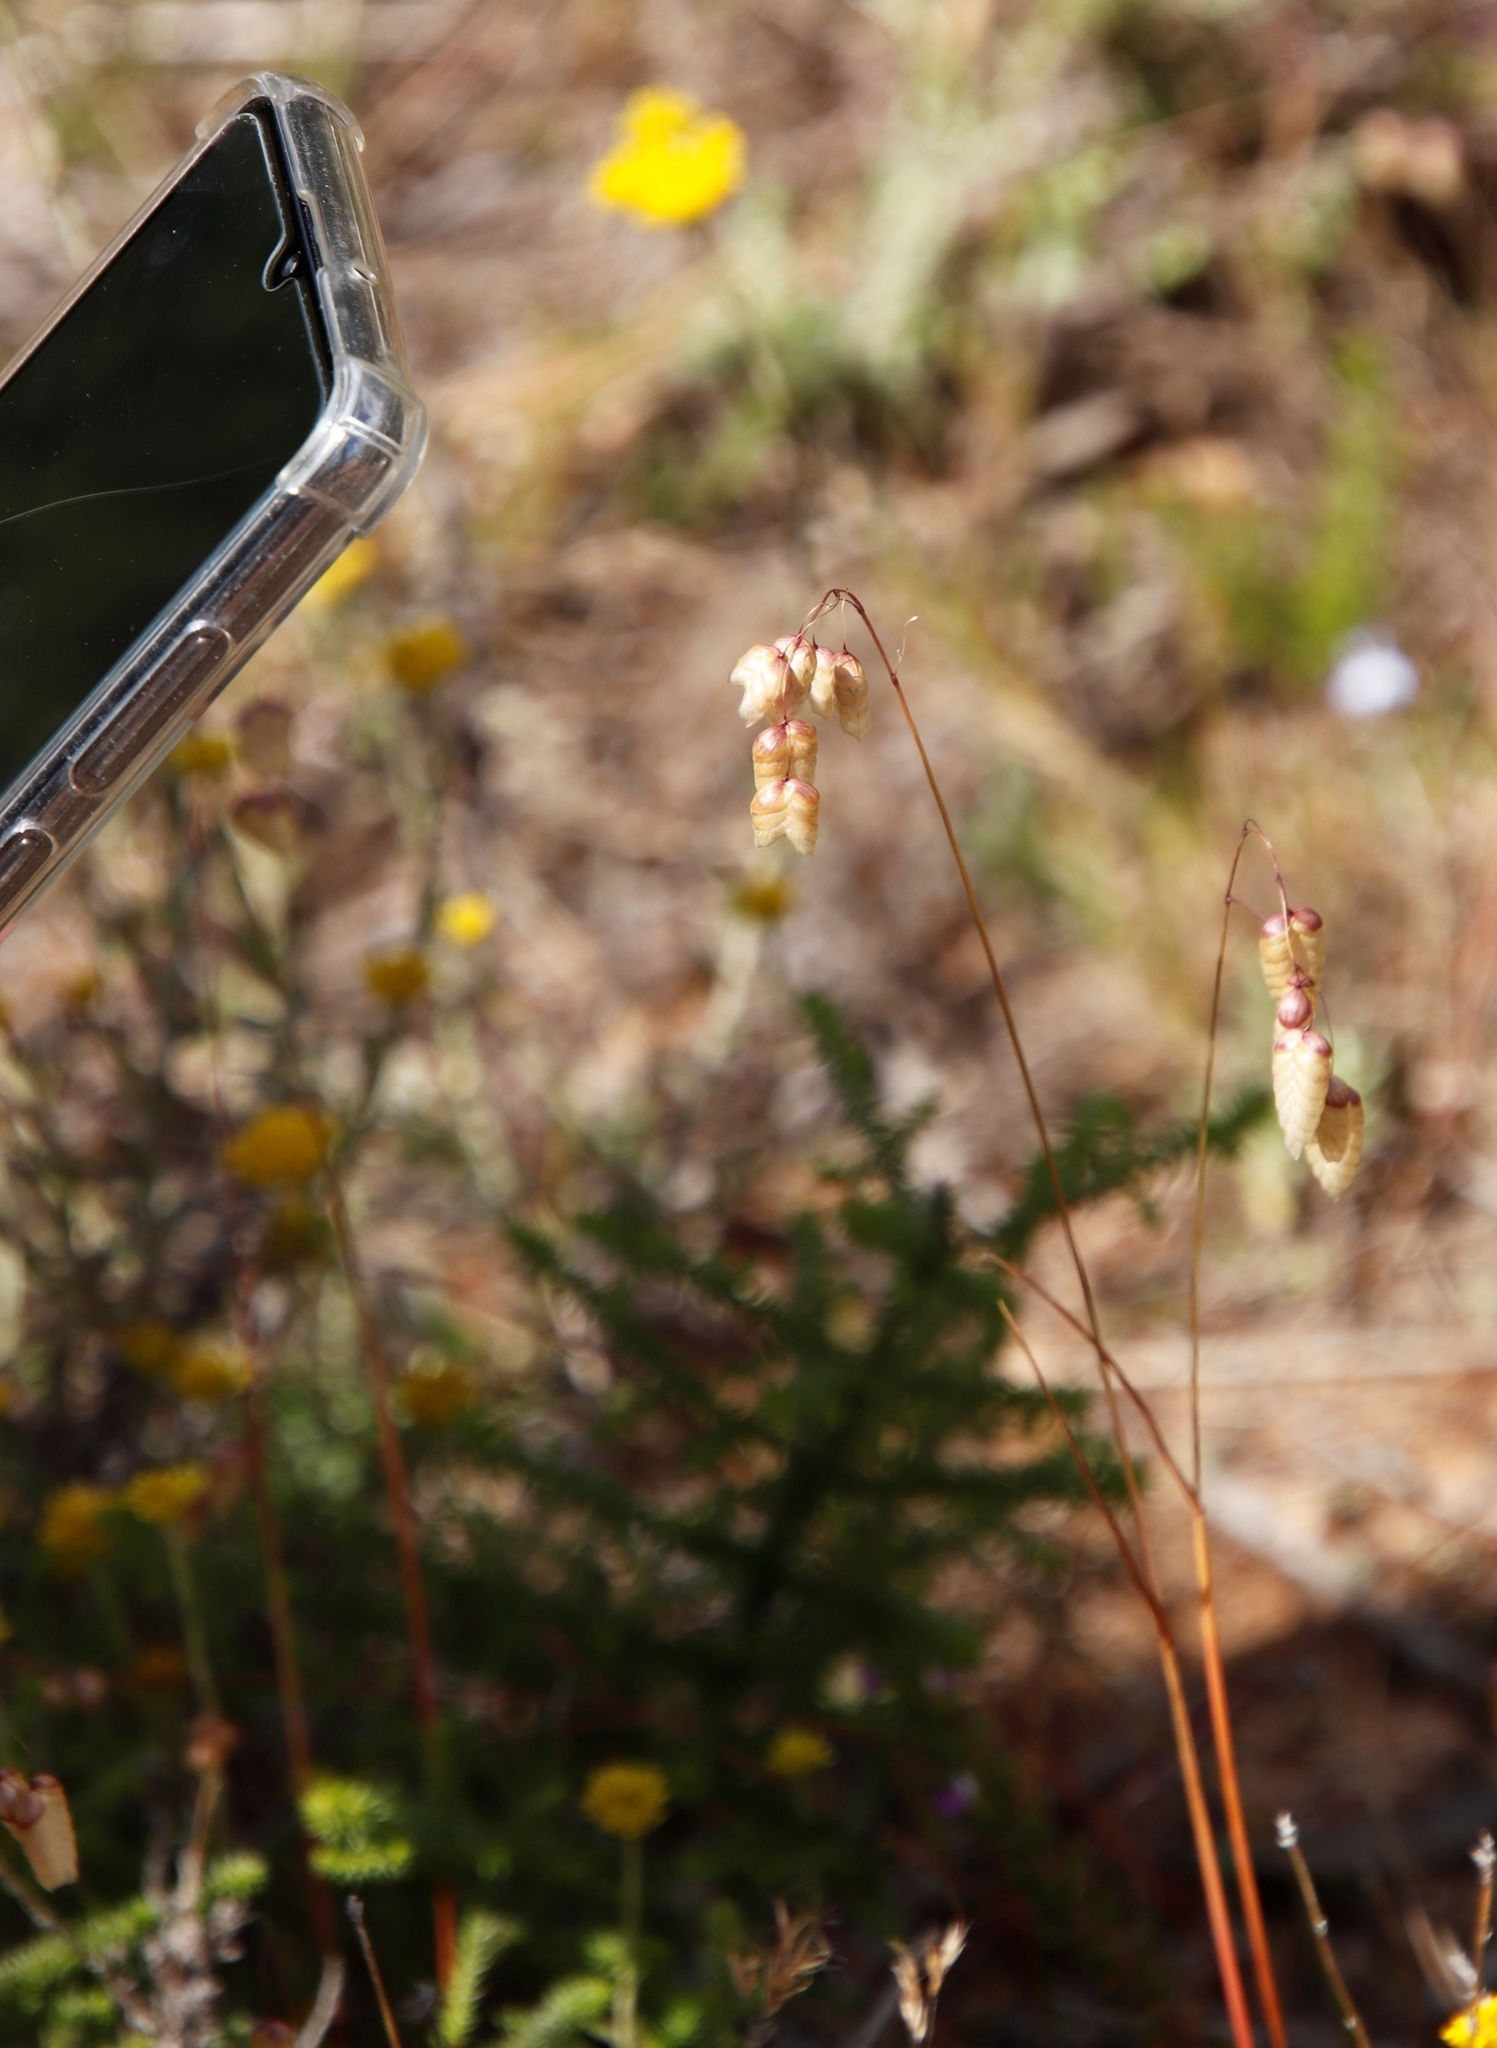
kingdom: Plantae
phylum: Tracheophyta
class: Liliopsida
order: Poales
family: Poaceae
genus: Briza
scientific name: Briza maxima
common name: Big quakinggrass
